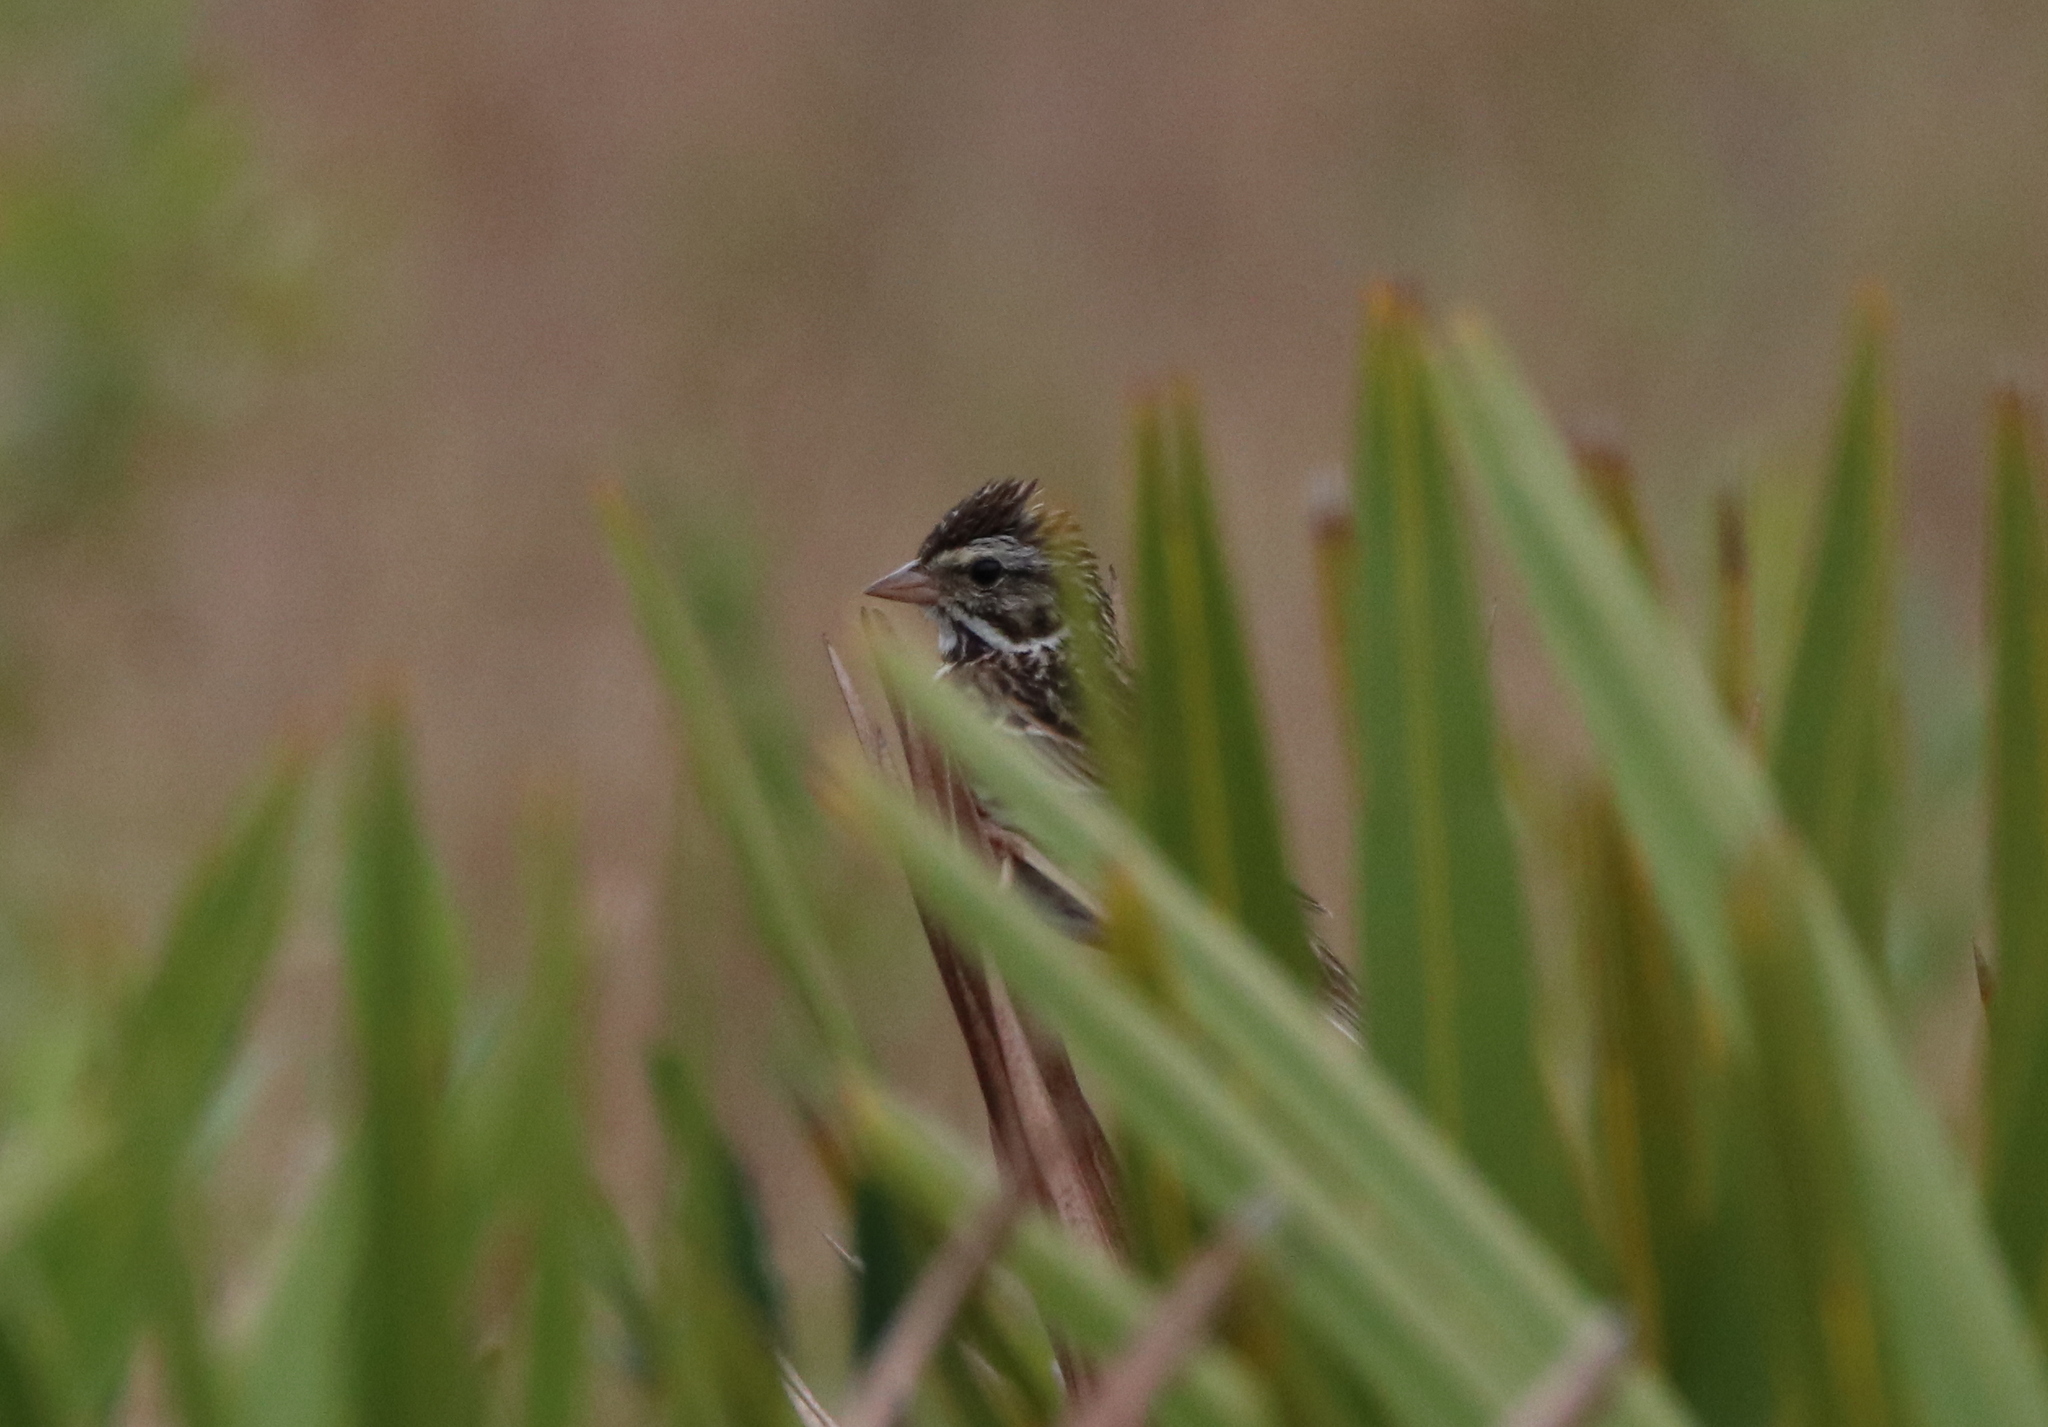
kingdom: Animalia
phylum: Chordata
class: Aves
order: Passeriformes
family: Passerellidae
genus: Passerculus
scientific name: Passerculus sandwichensis
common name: Savannah sparrow
